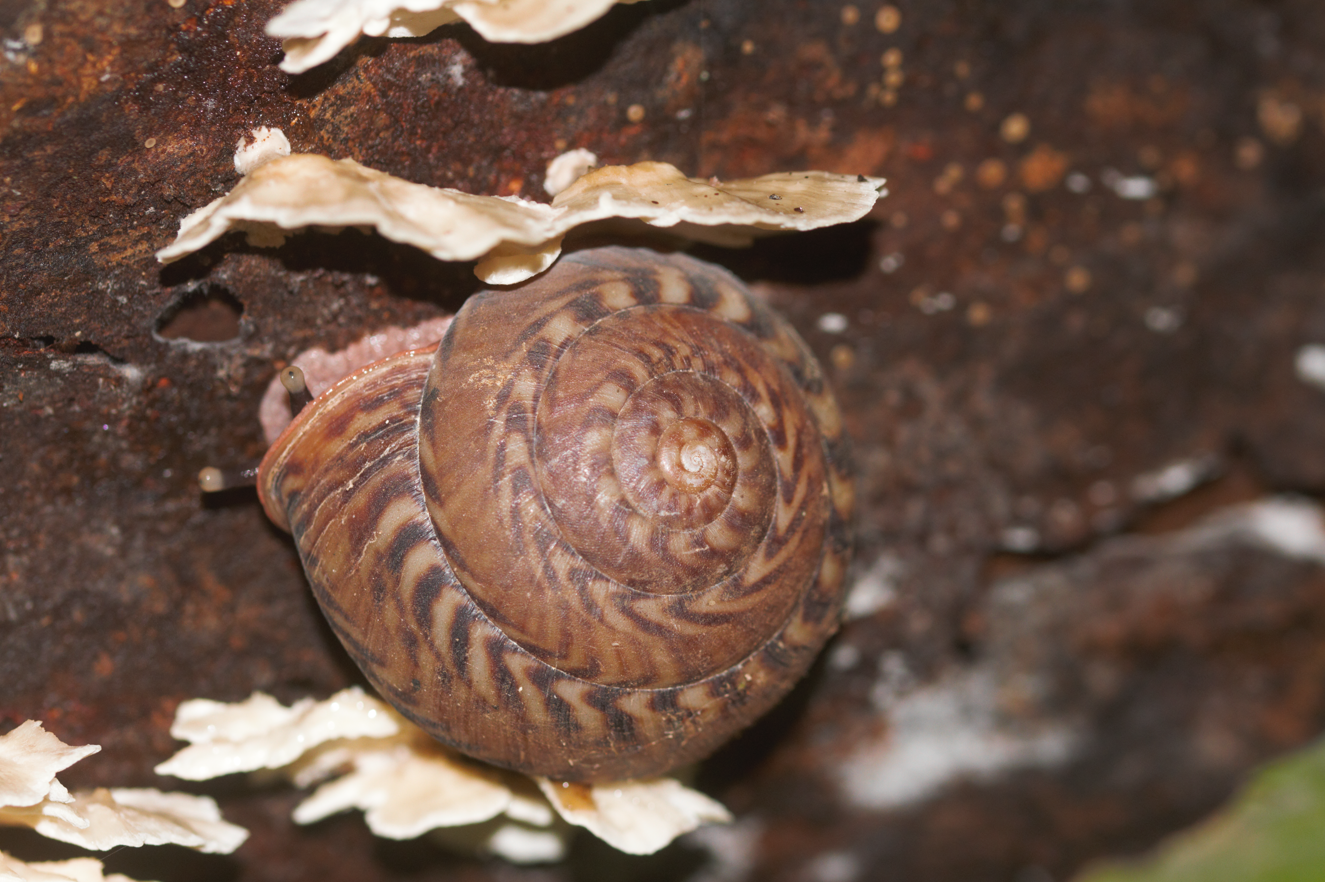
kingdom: Animalia
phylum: Mollusca
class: Gastropoda
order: Stylommatophora
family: Solaropsidae
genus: Solaropsis
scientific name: Solaropsis undata
